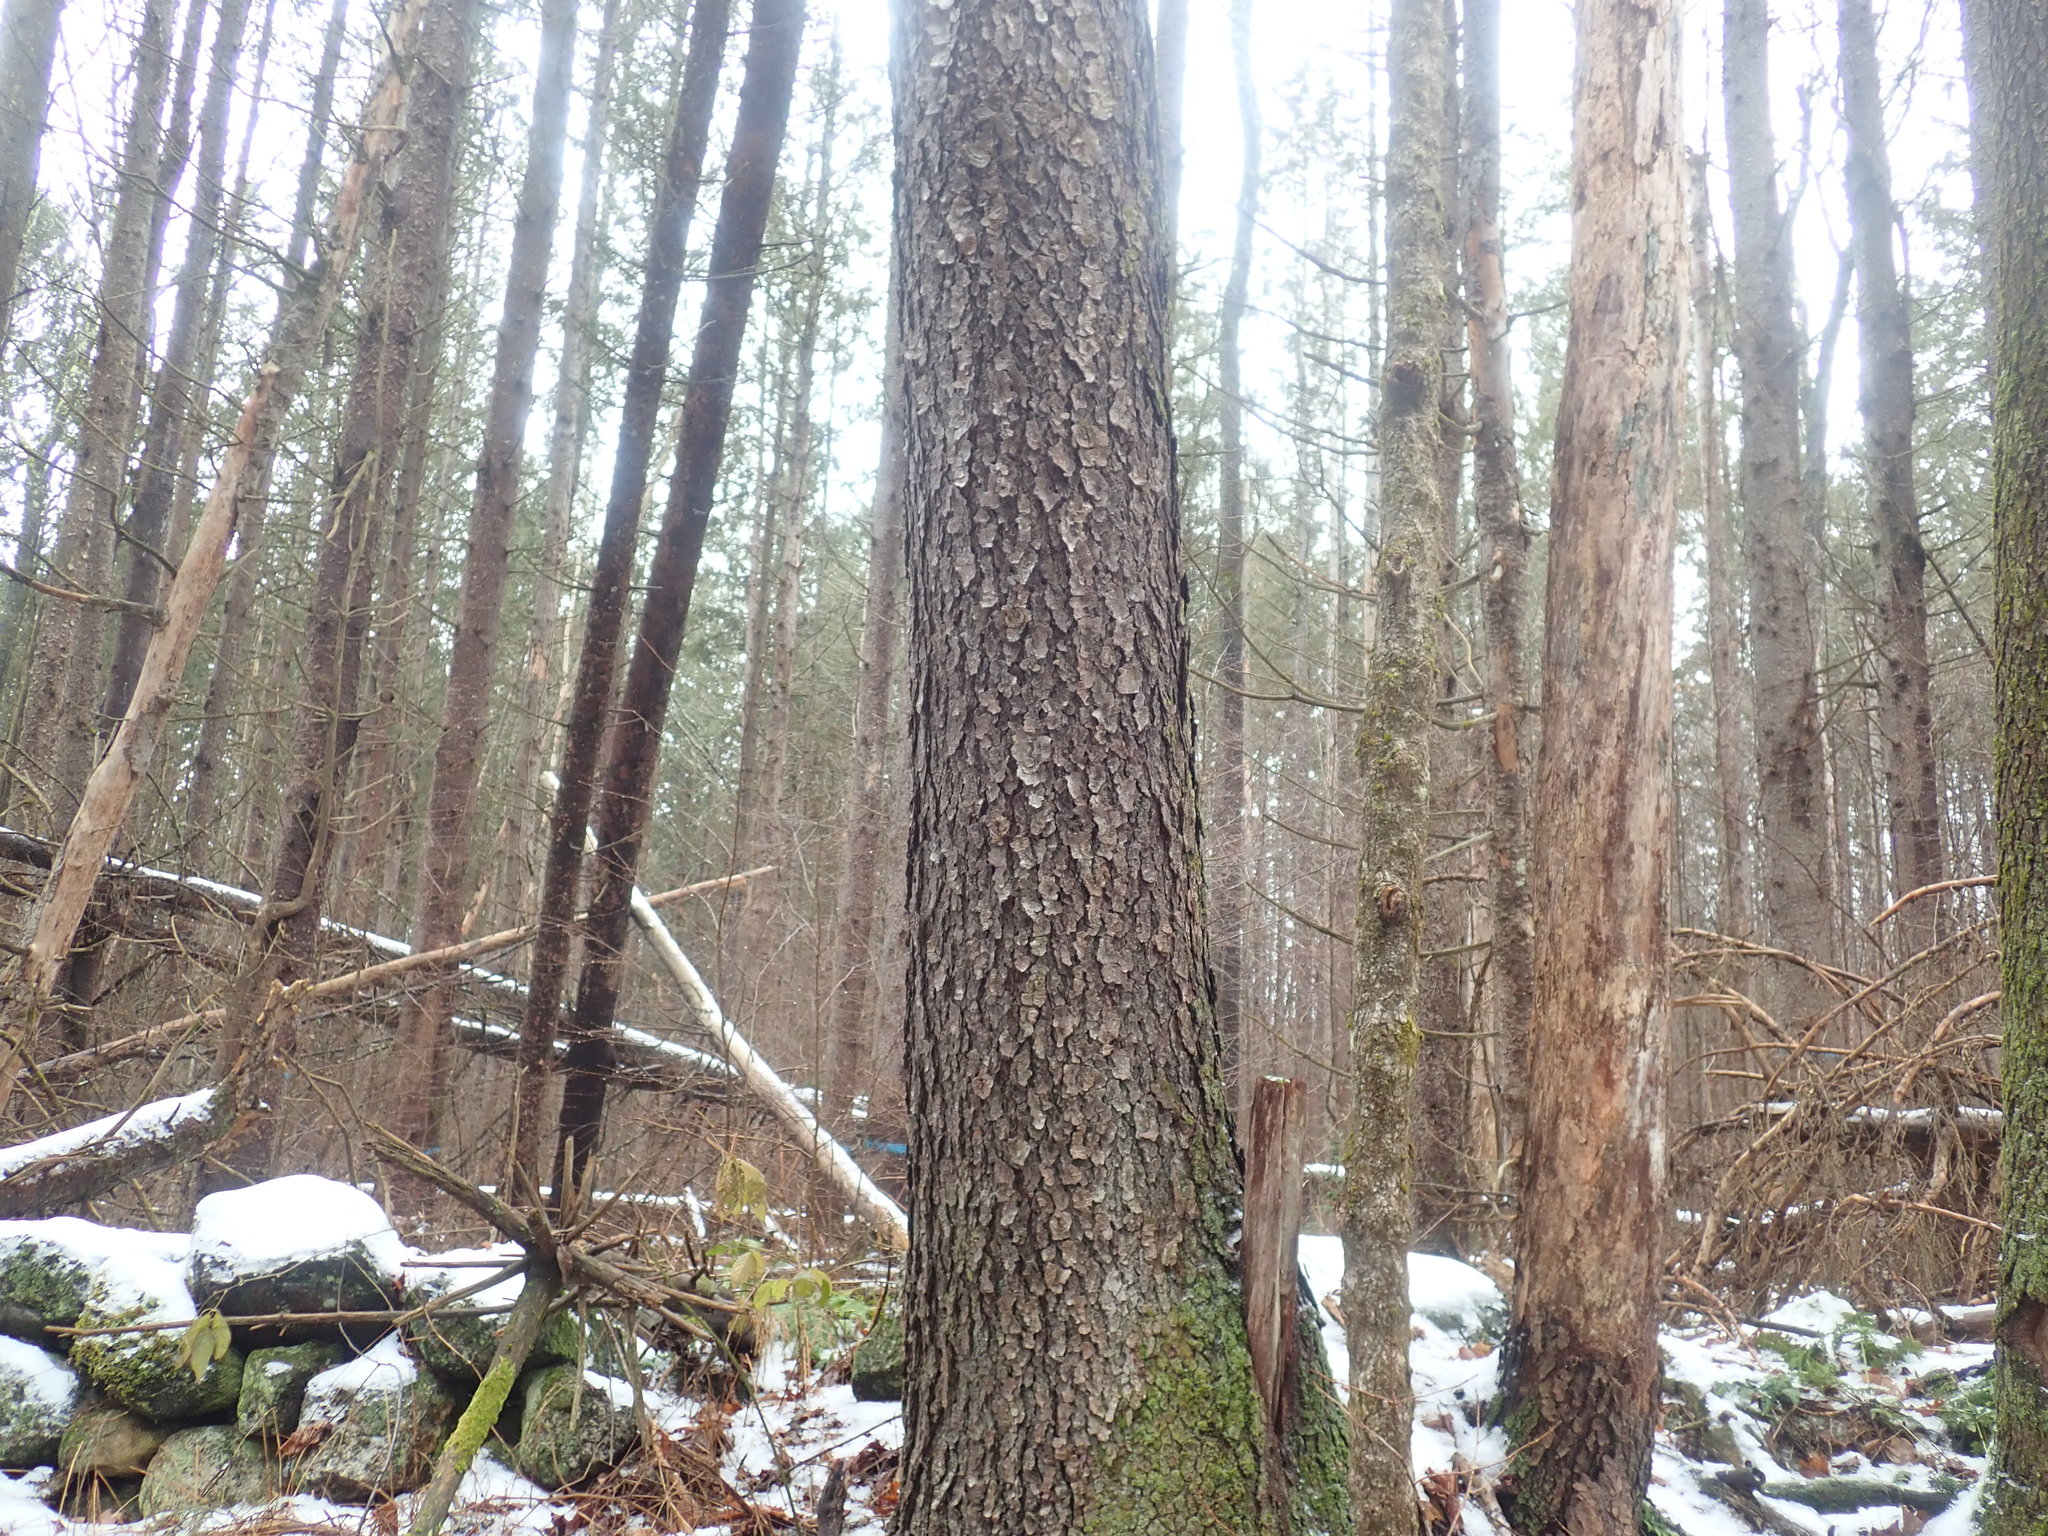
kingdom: Plantae
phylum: Tracheophyta
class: Magnoliopsida
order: Rosales
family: Rosaceae
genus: Prunus
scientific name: Prunus serotina
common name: Black cherry
